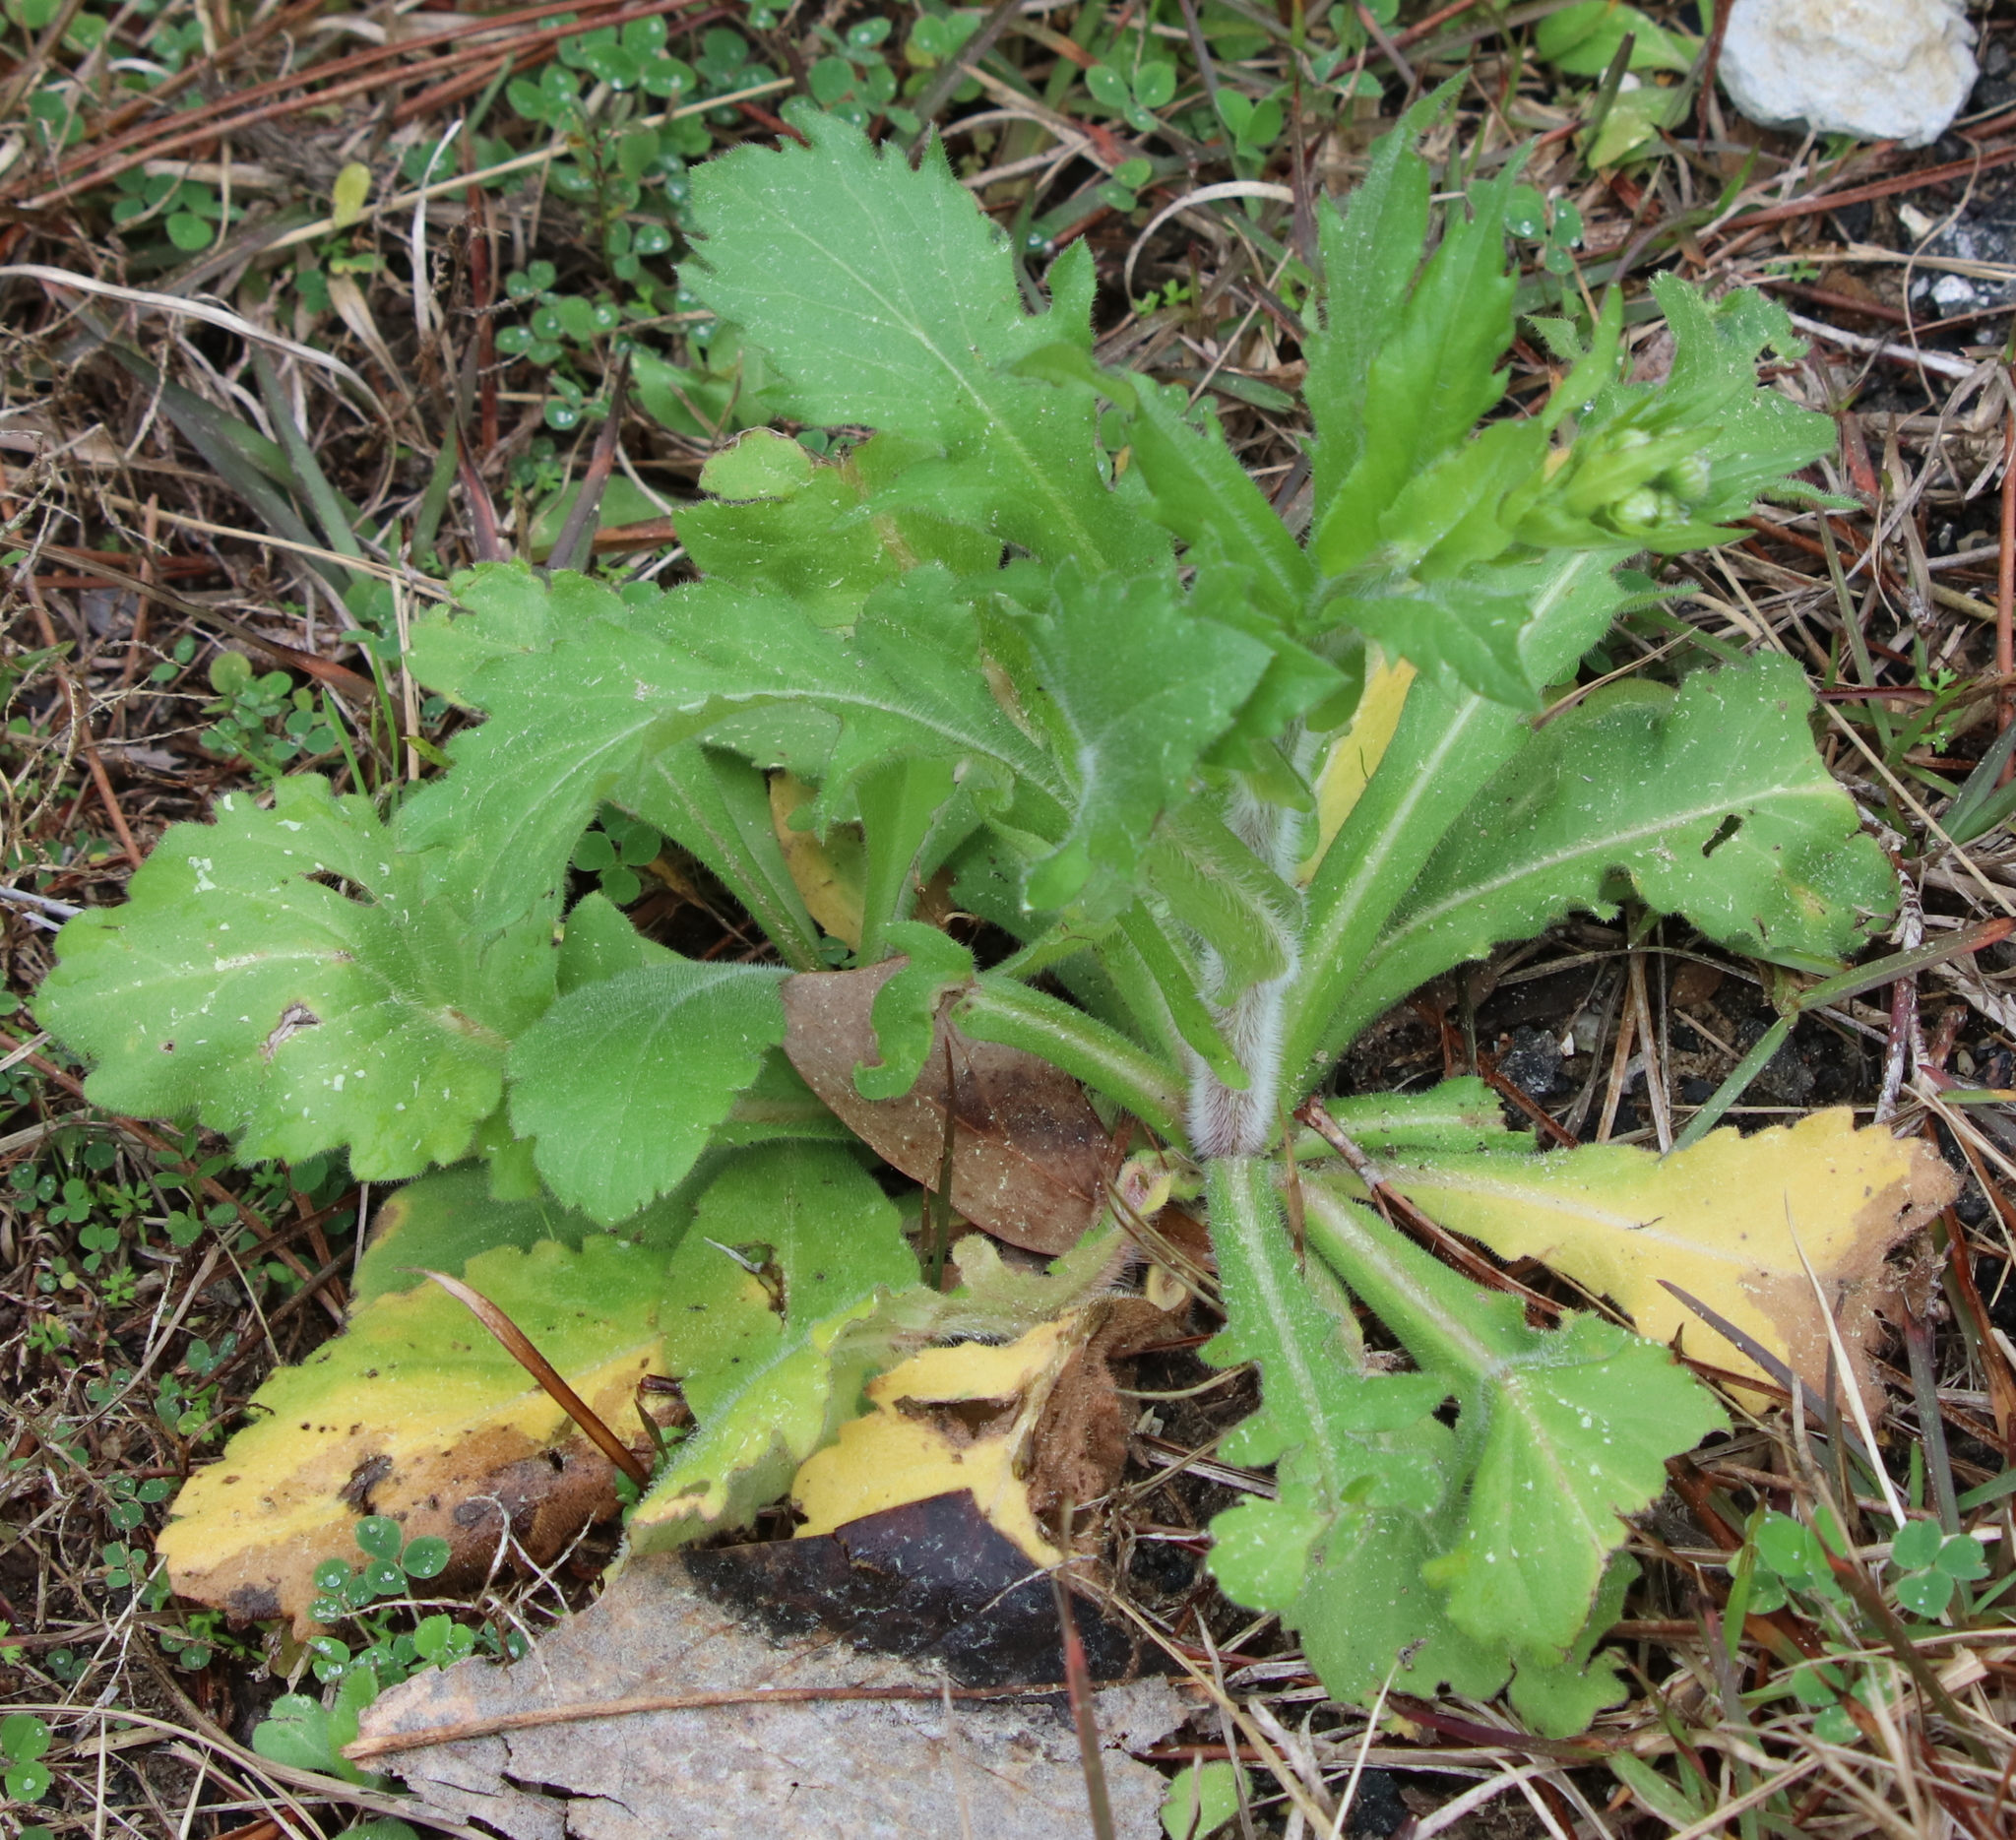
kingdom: Plantae
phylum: Tracheophyta
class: Magnoliopsida
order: Asterales
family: Asteraceae
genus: Erigeron
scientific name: Erigeron canadensis
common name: Canadian fleabane
